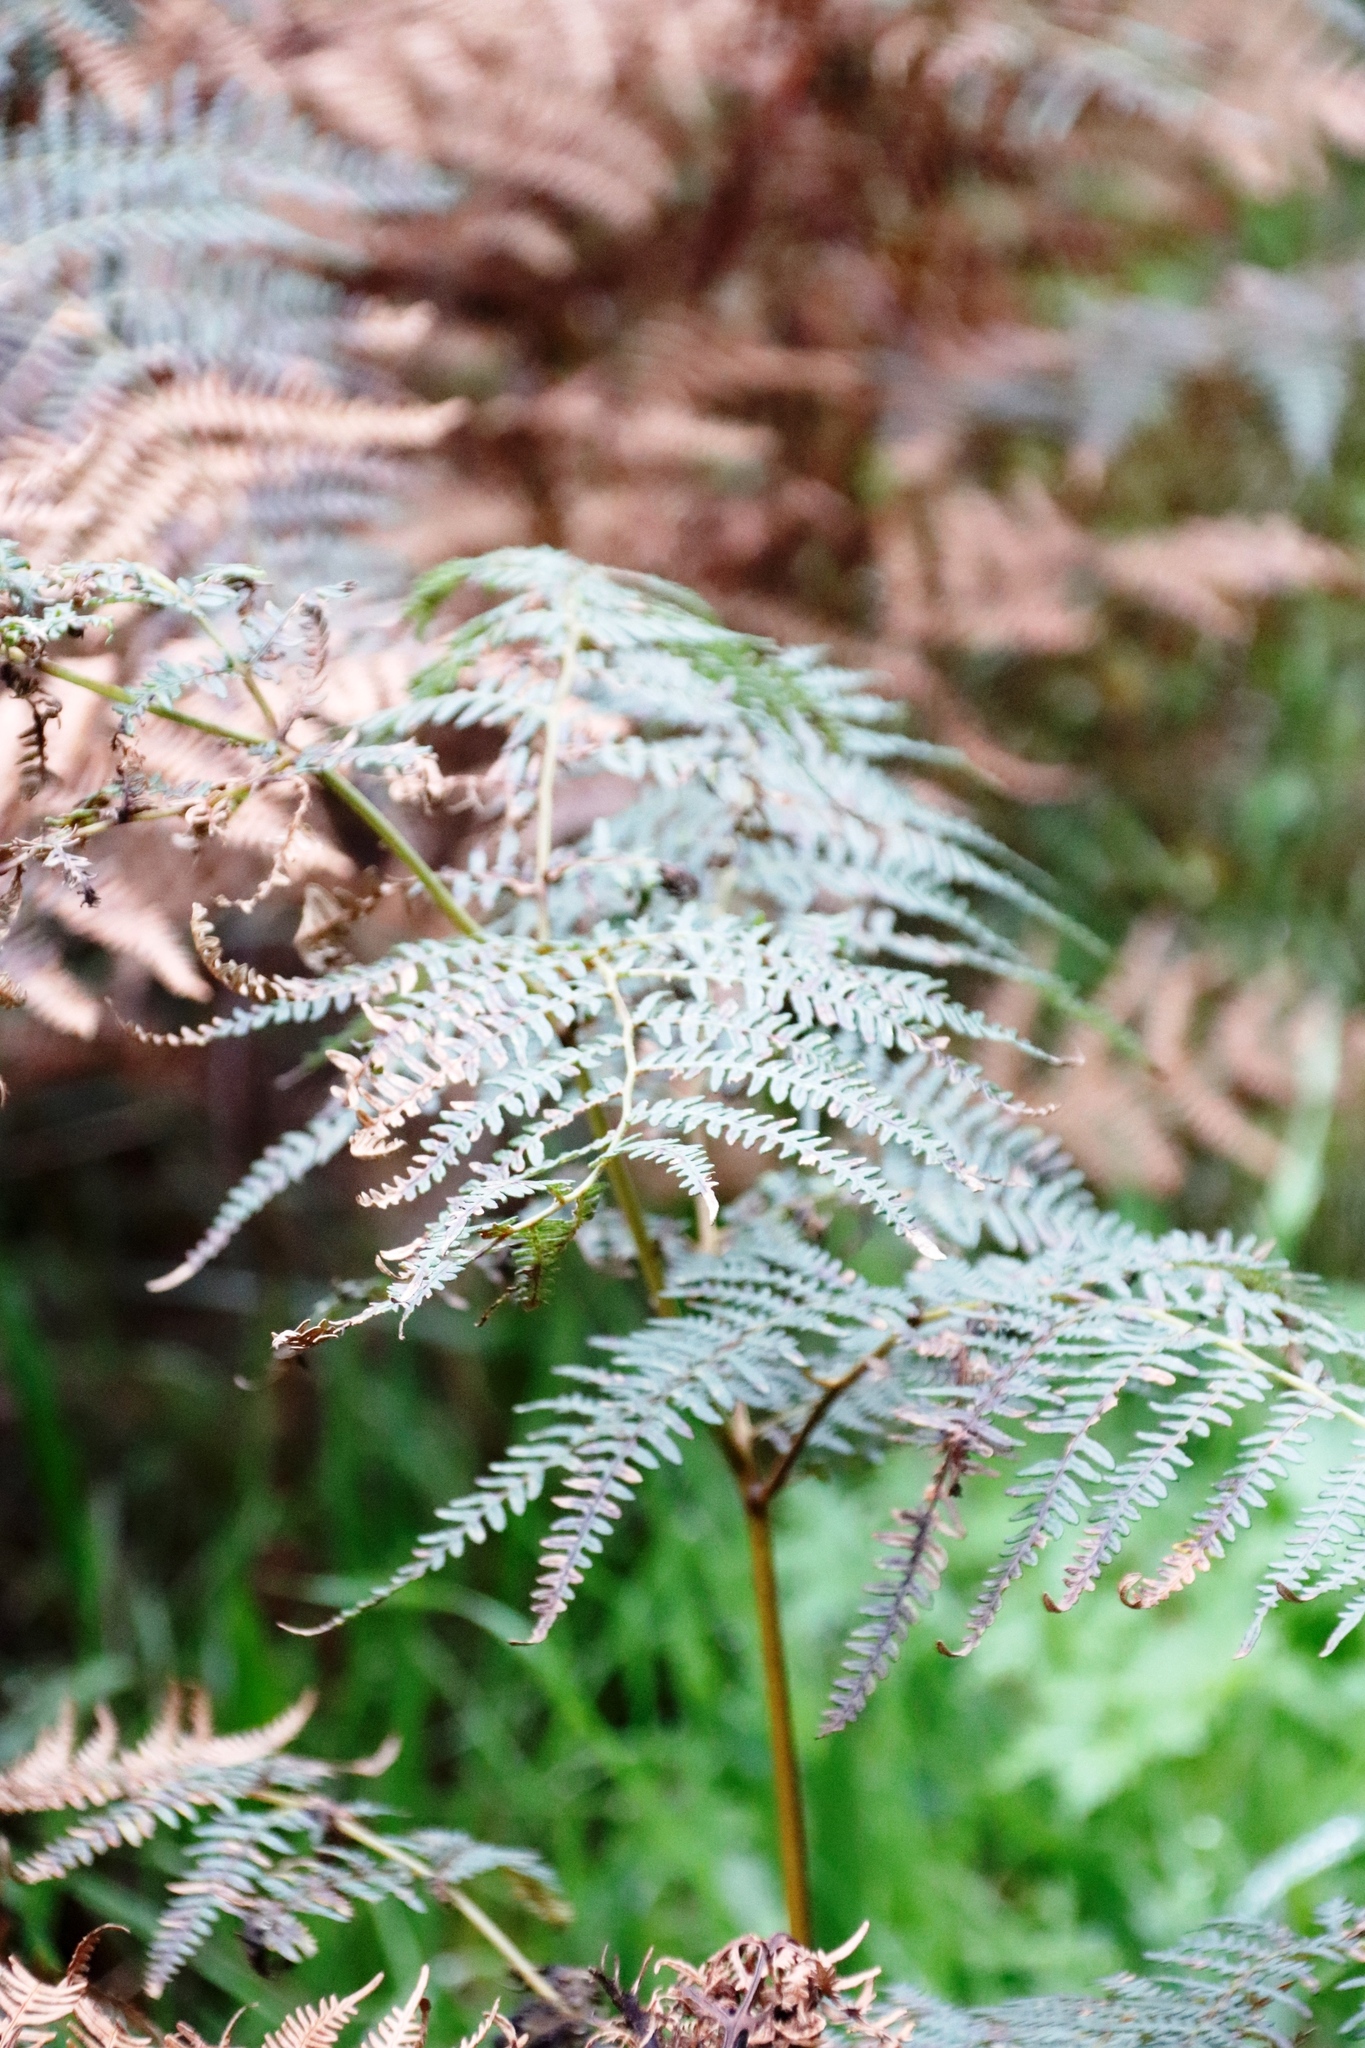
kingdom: Plantae
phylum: Tracheophyta
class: Polypodiopsida
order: Polypodiales
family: Dennstaedtiaceae
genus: Pteridium
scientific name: Pteridium aquilinum
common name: Bracken
